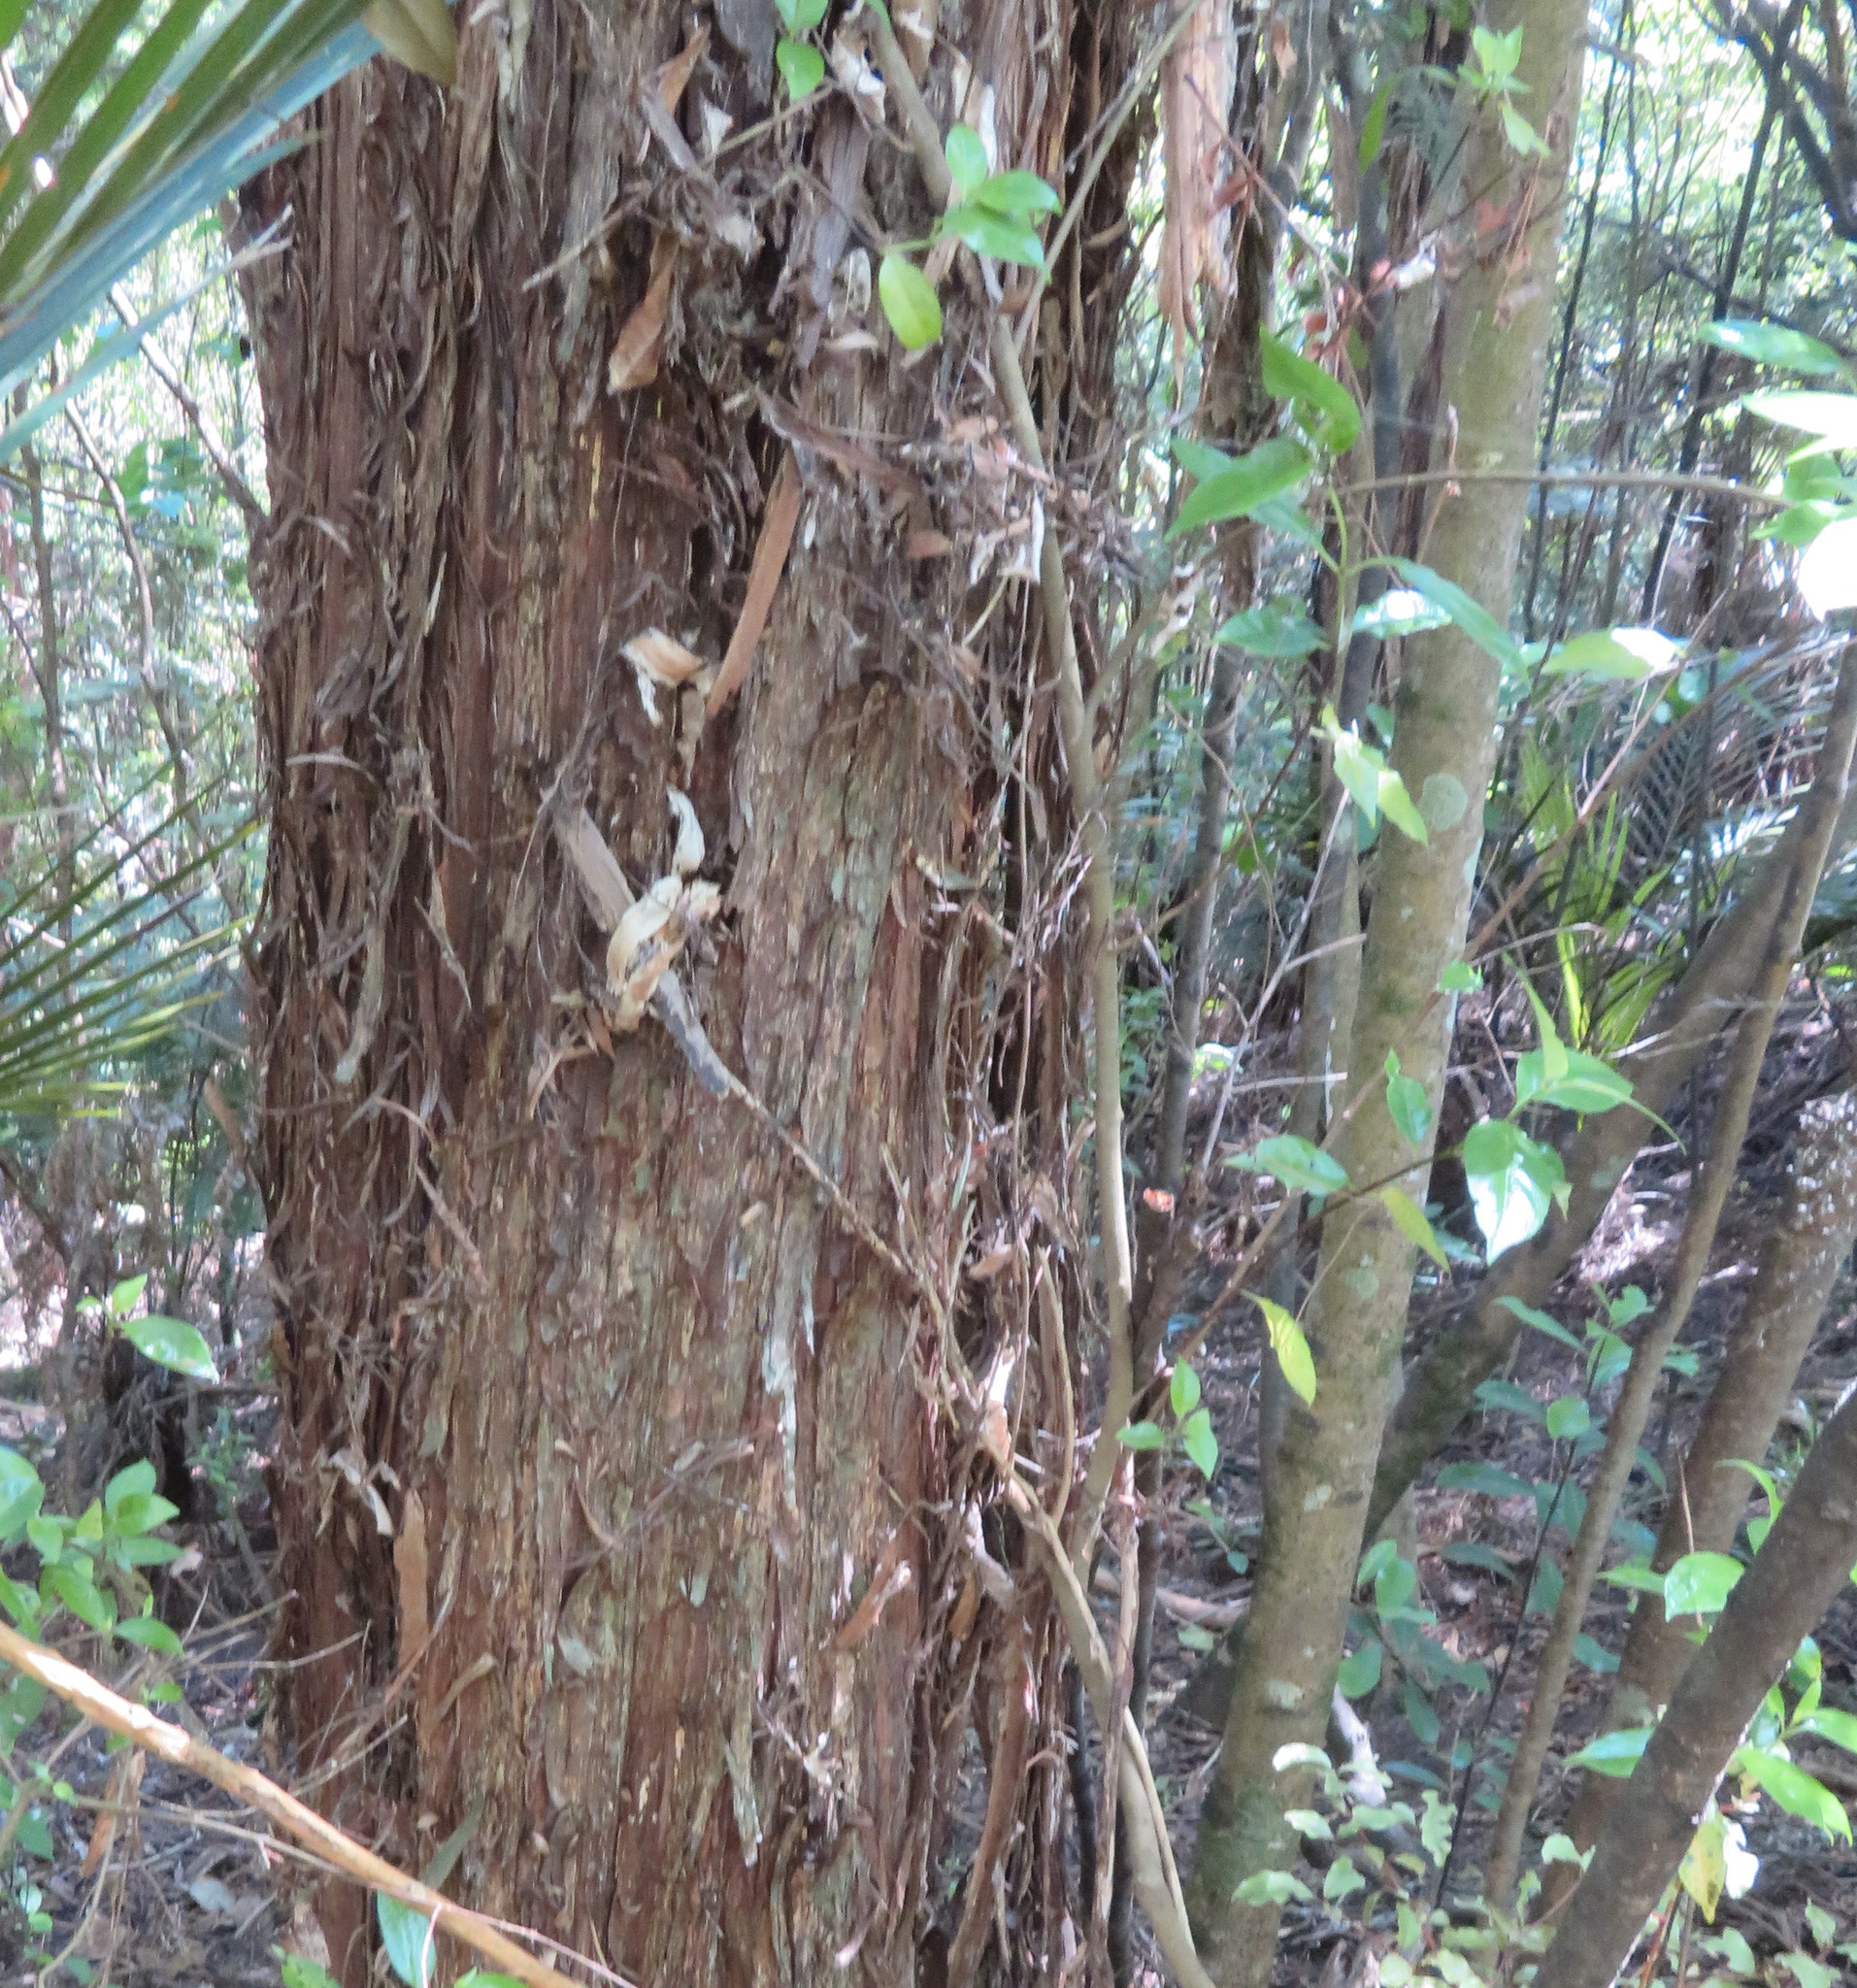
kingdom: Plantae
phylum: Tracheophyta
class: Magnoliopsida
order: Gentianales
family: Loganiaceae
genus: Geniostoma
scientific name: Geniostoma ligustrifolium
